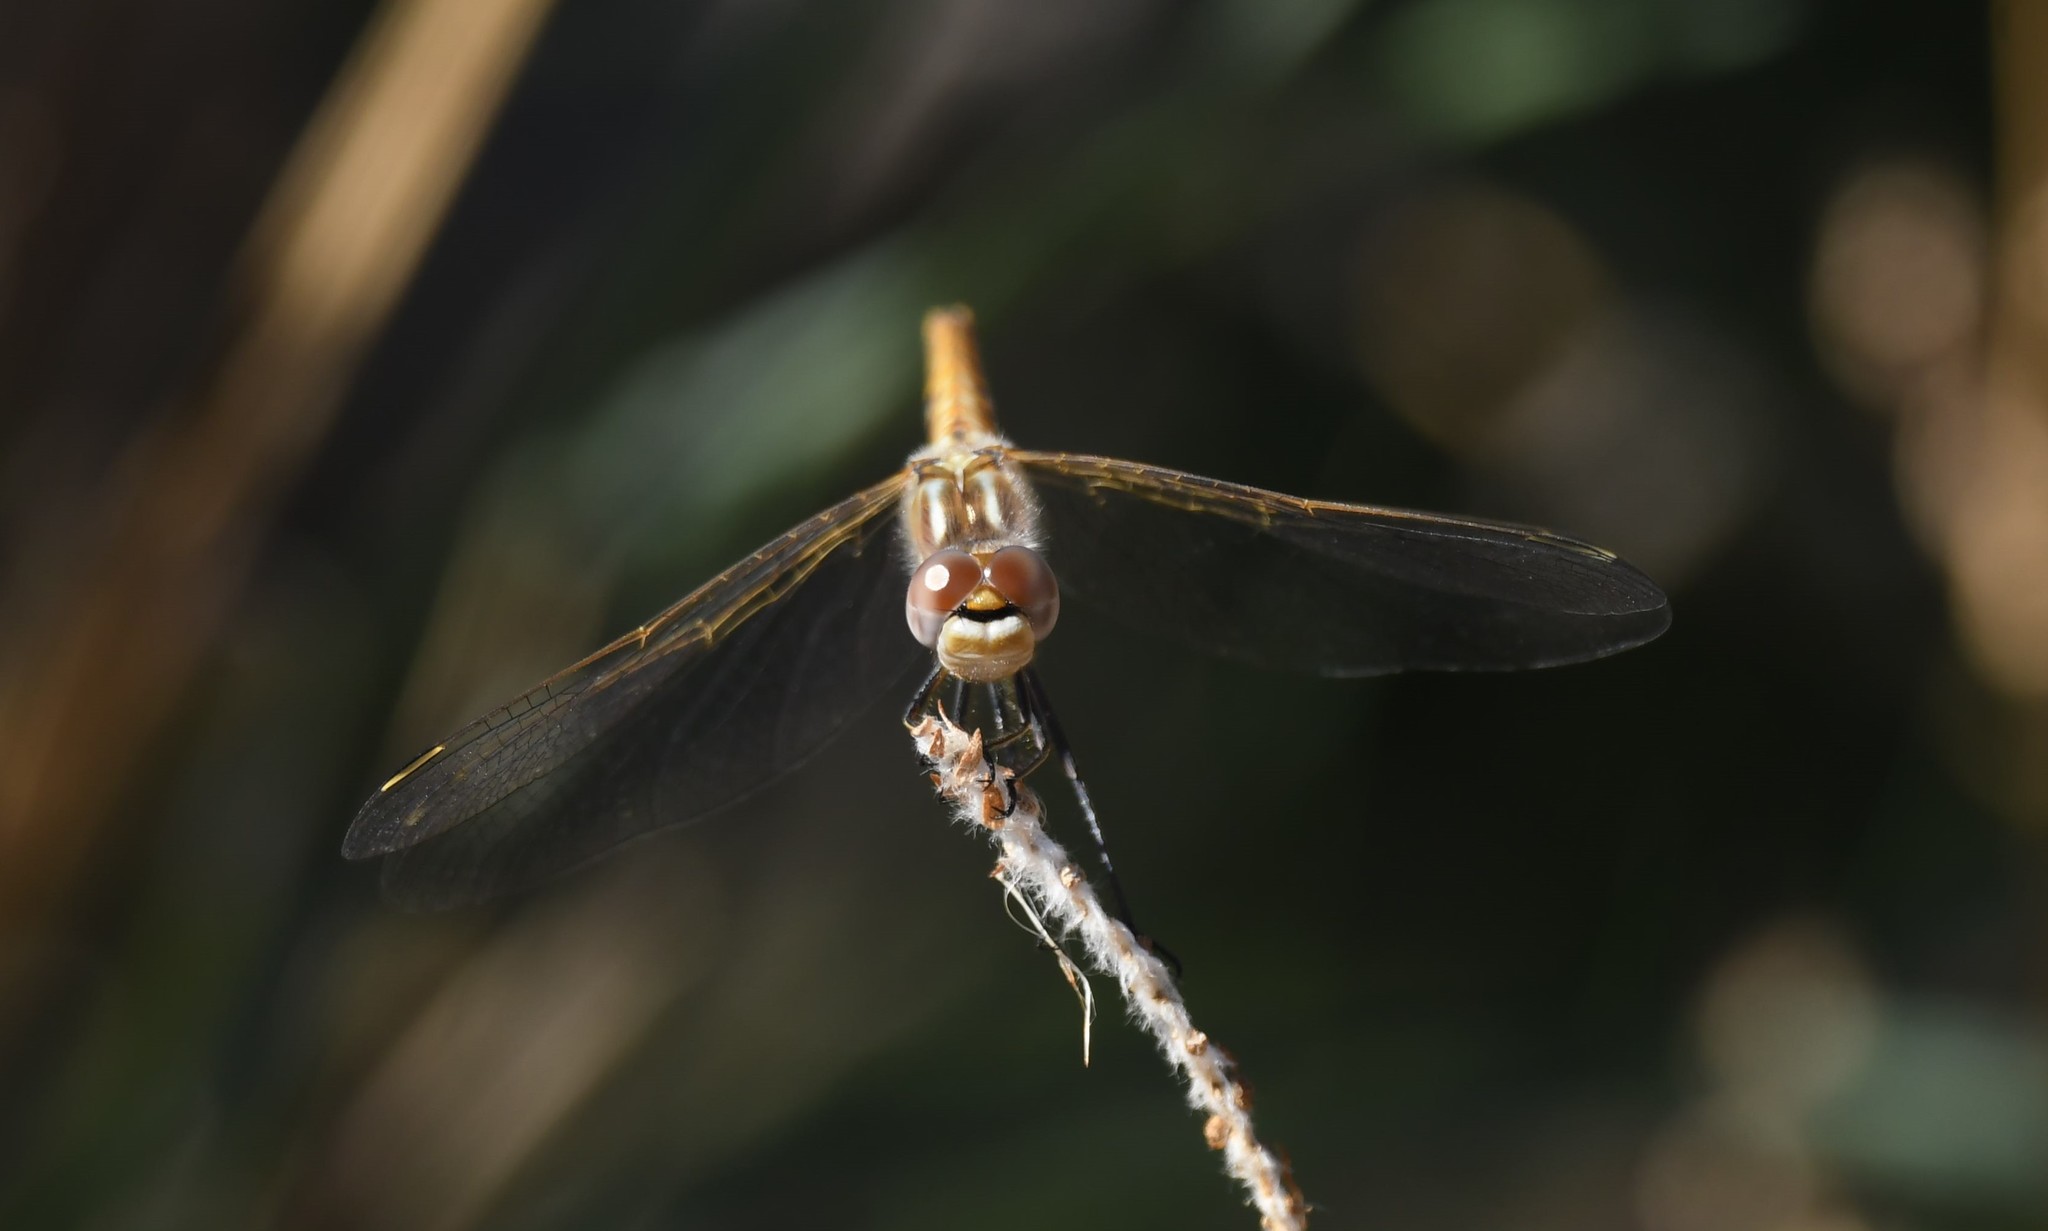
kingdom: Animalia
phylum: Arthropoda
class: Insecta
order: Odonata
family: Libellulidae
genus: Sympetrum
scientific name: Sympetrum corruptum
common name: Variegated meadowhawk
